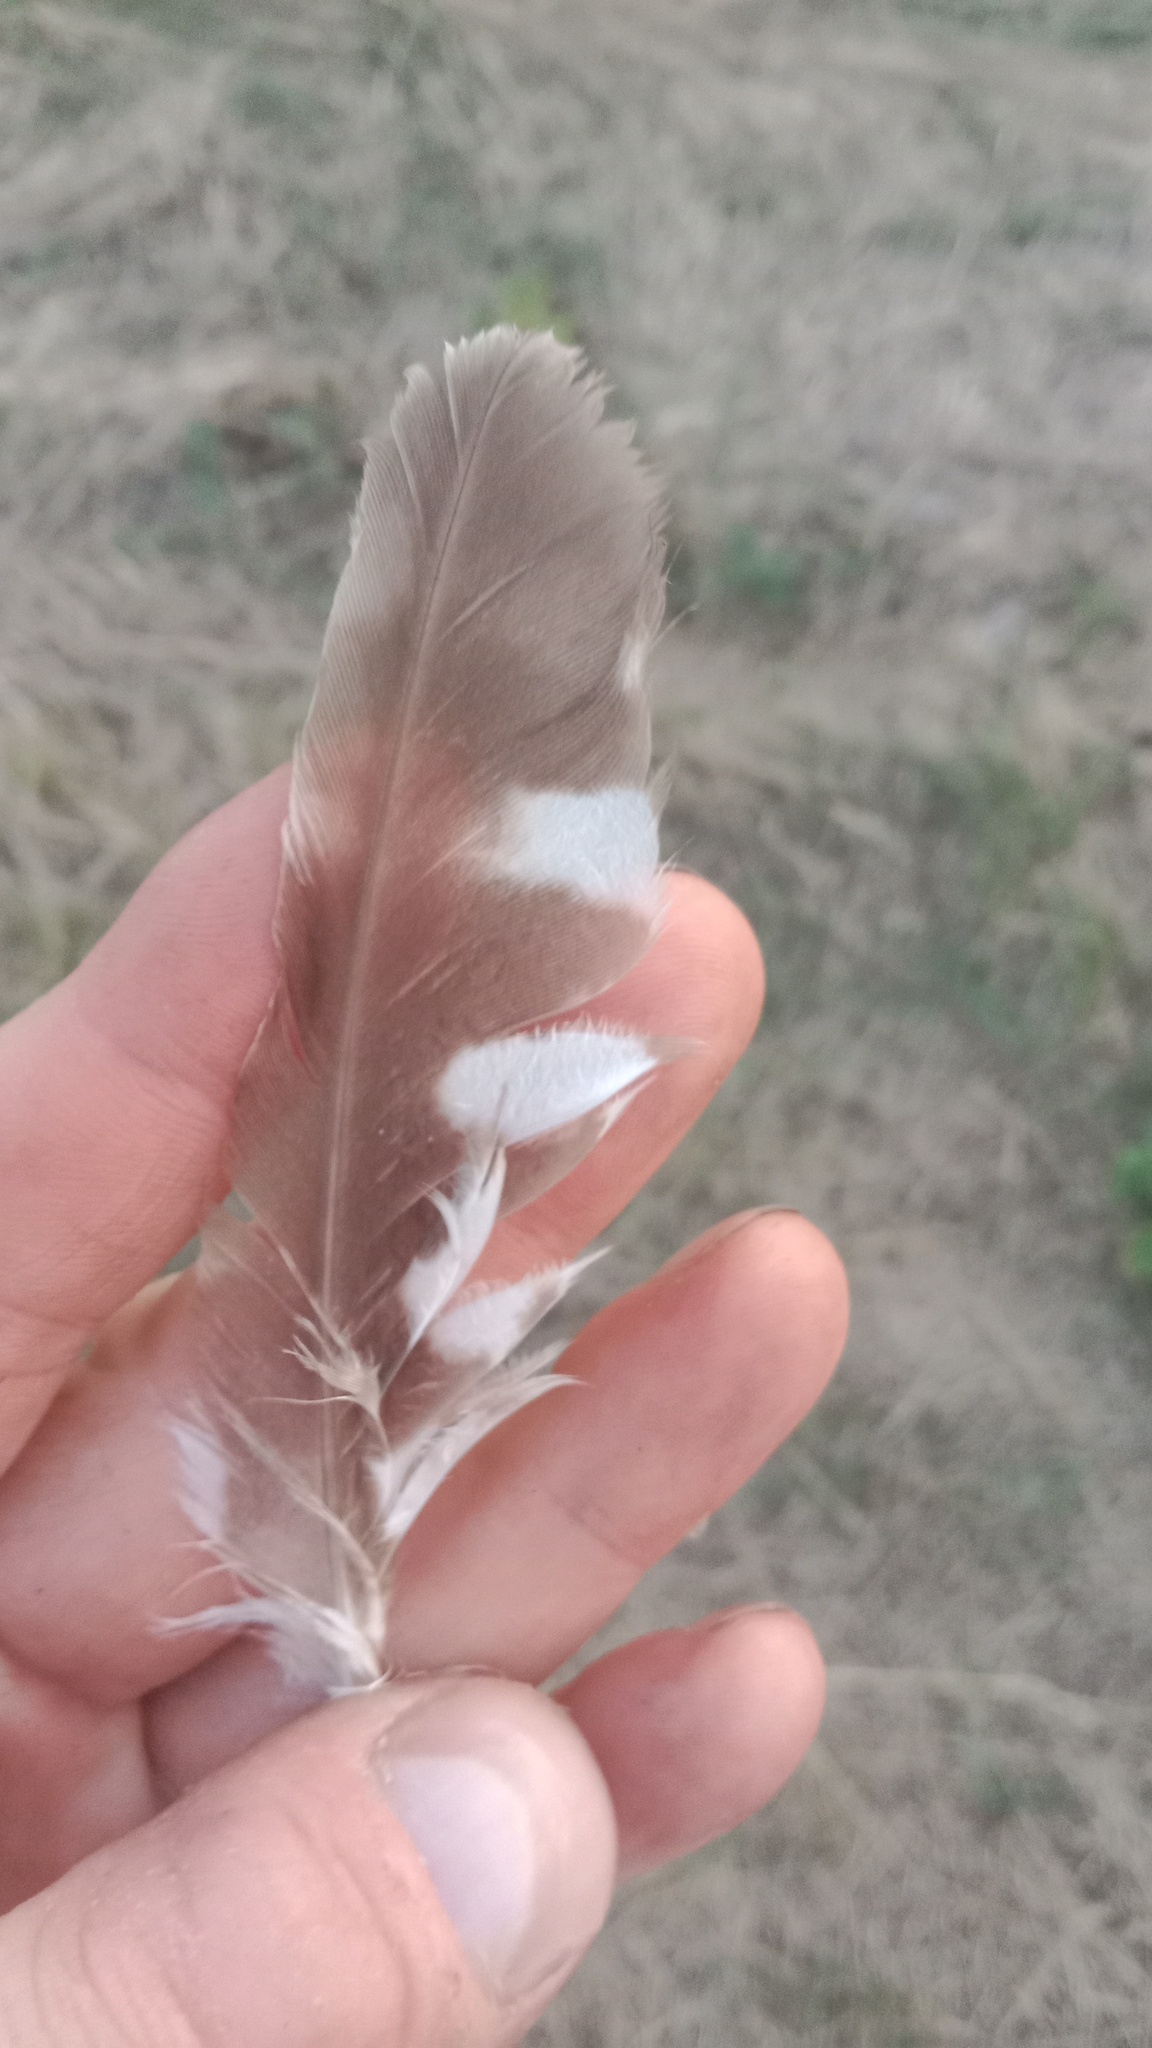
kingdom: Animalia
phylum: Chordata
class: Aves
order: Strigiformes
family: Strigidae
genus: Athene
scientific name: Athene noctua
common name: Little owl
